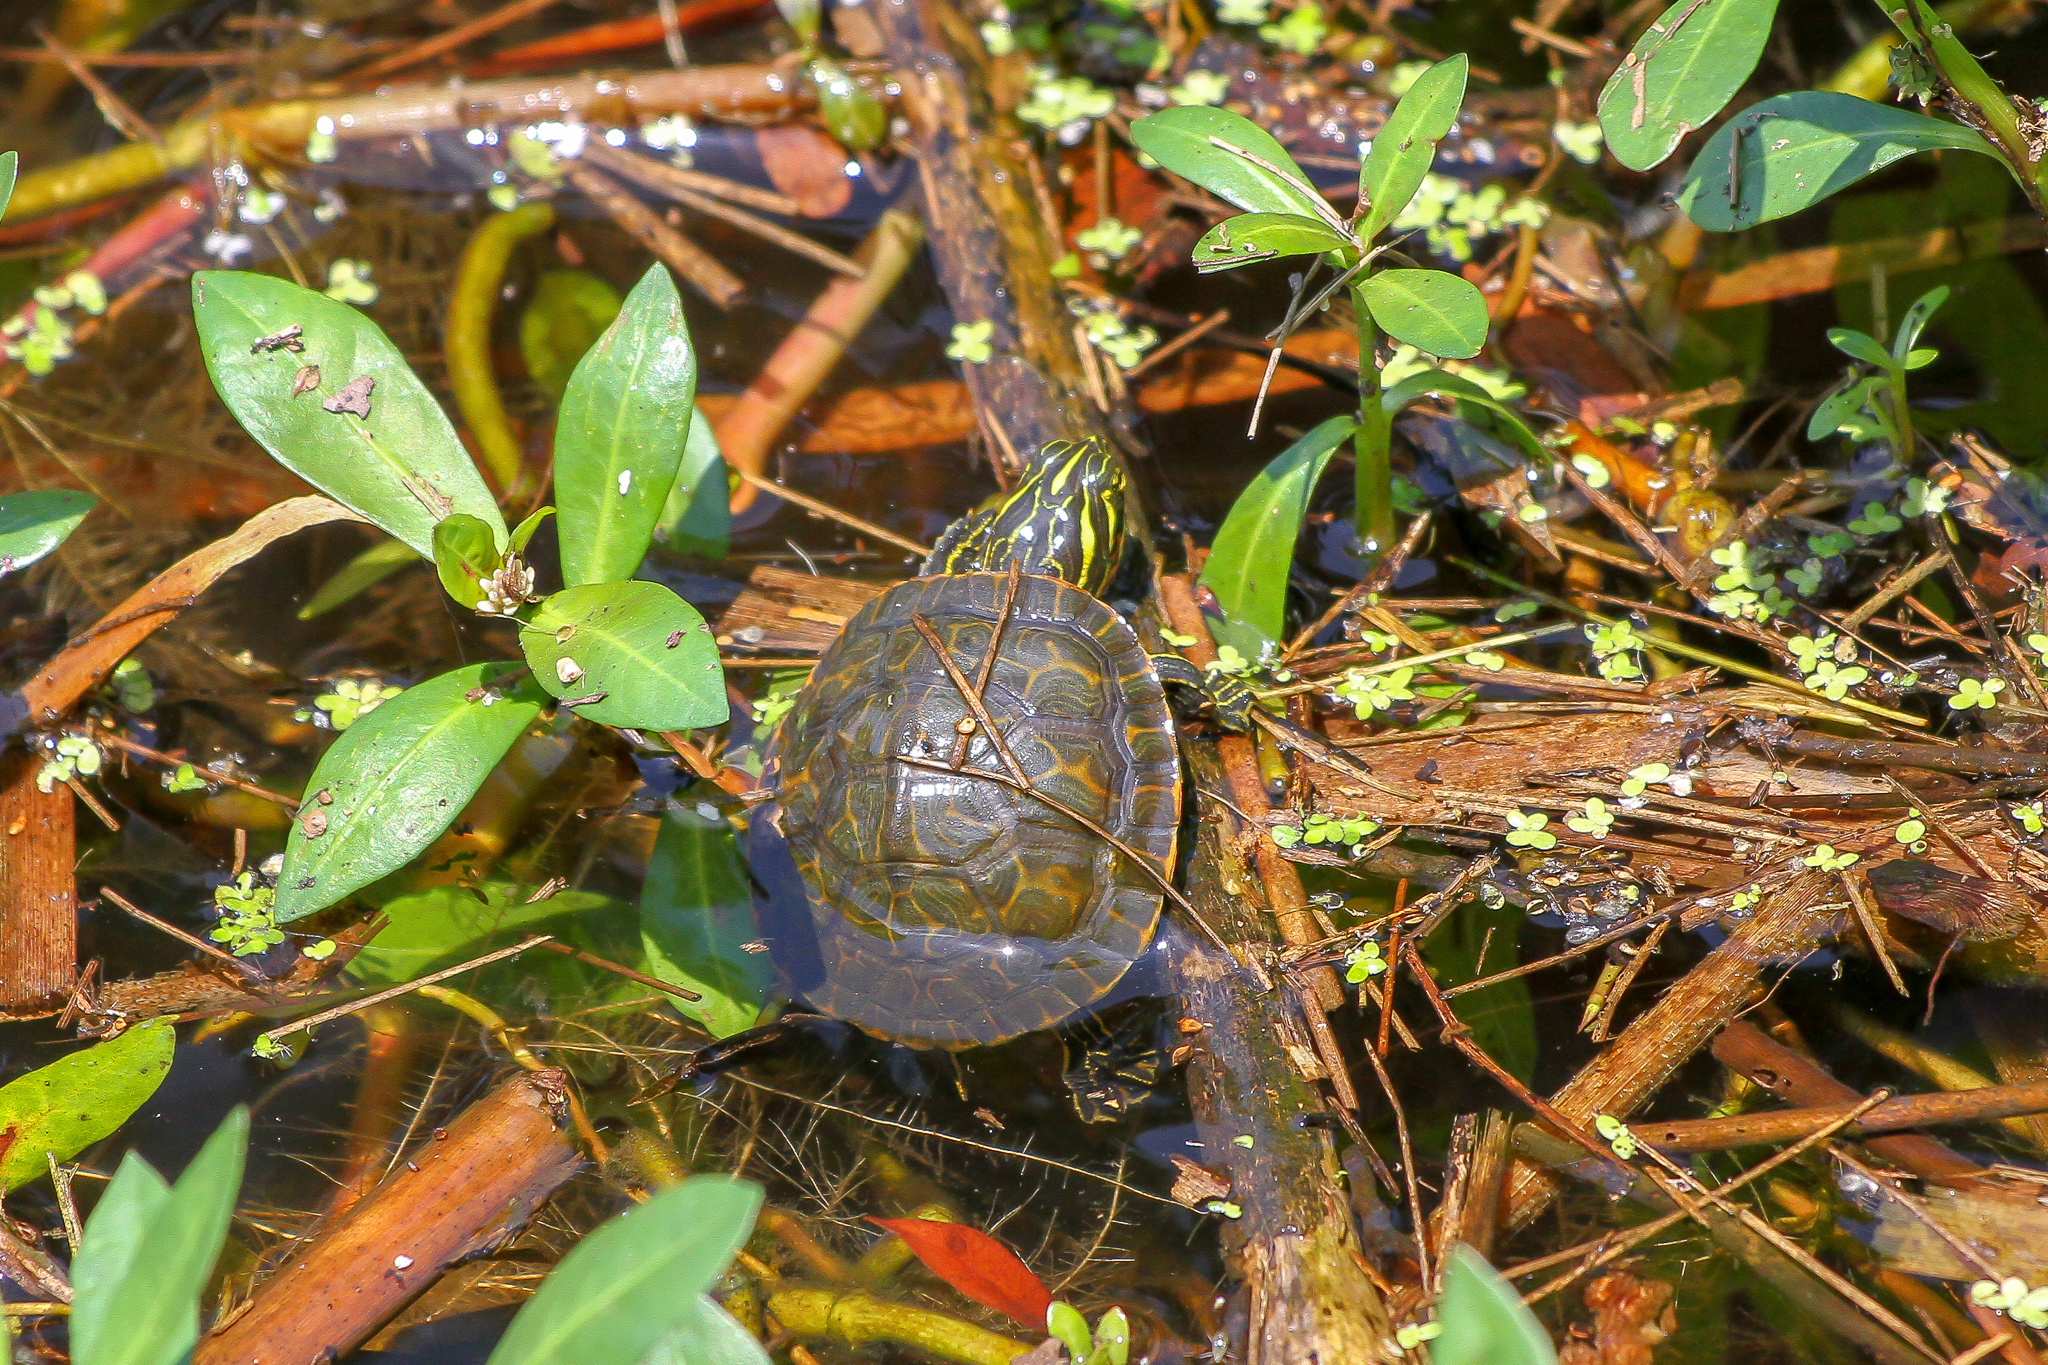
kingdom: Animalia
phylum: Chordata
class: Testudines
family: Emydidae
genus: Pseudemys
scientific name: Pseudemys rubriventris
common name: American red-bellied turtle
